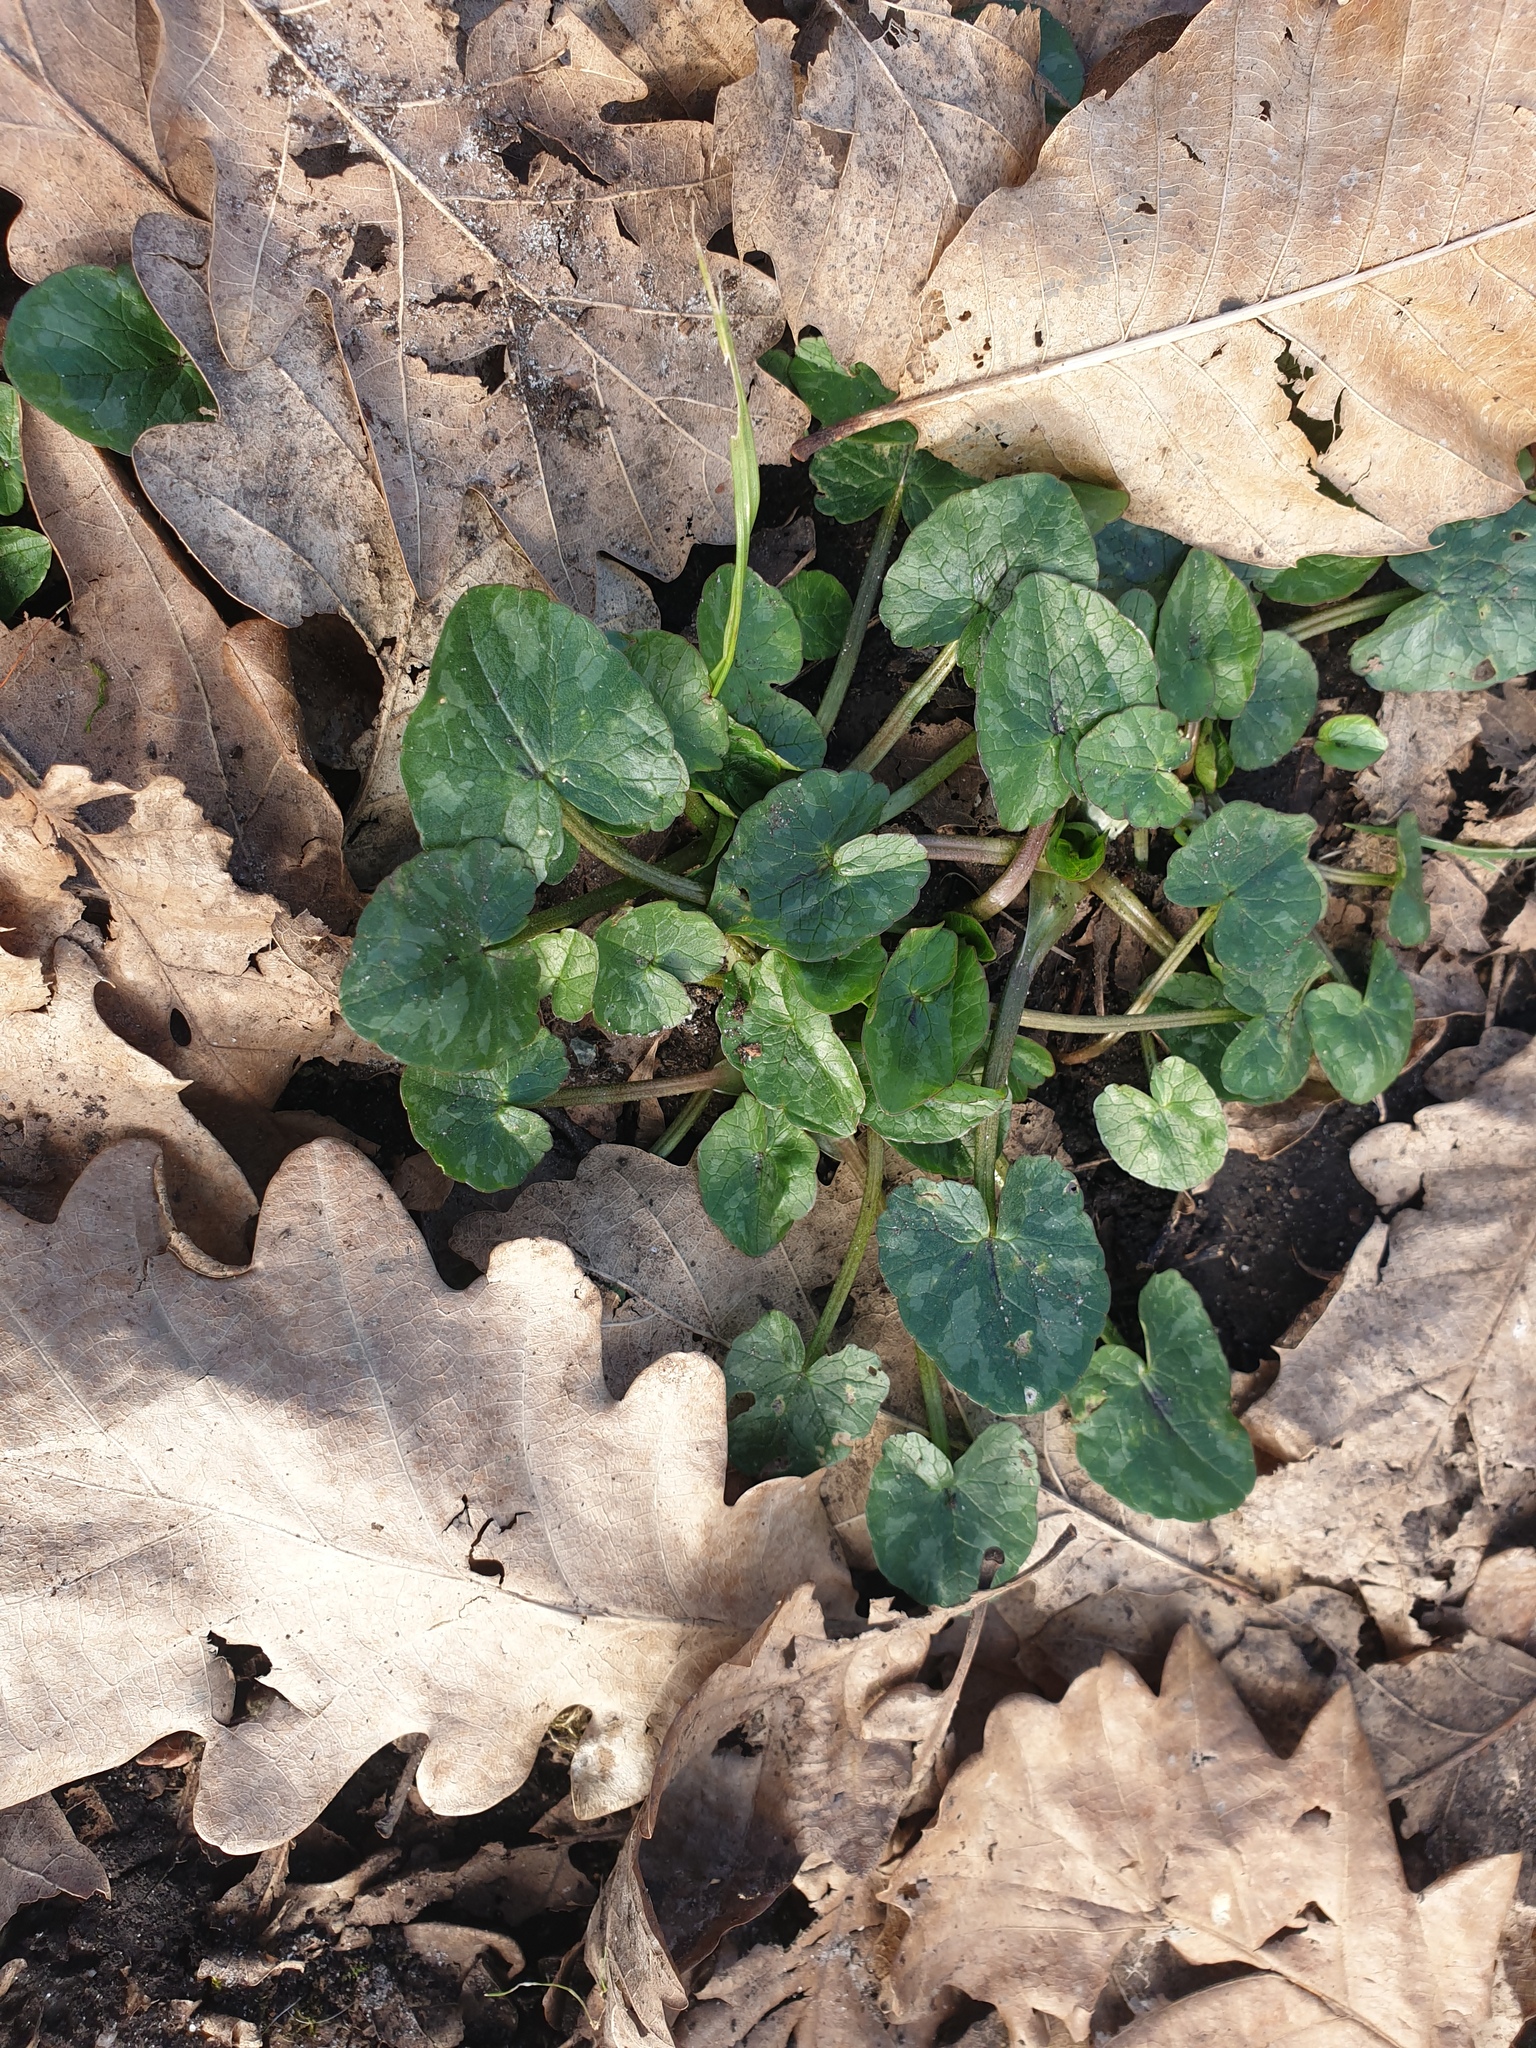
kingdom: Plantae
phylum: Tracheophyta
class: Magnoliopsida
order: Ranunculales
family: Ranunculaceae
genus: Ficaria
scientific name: Ficaria verna
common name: Lesser celandine
